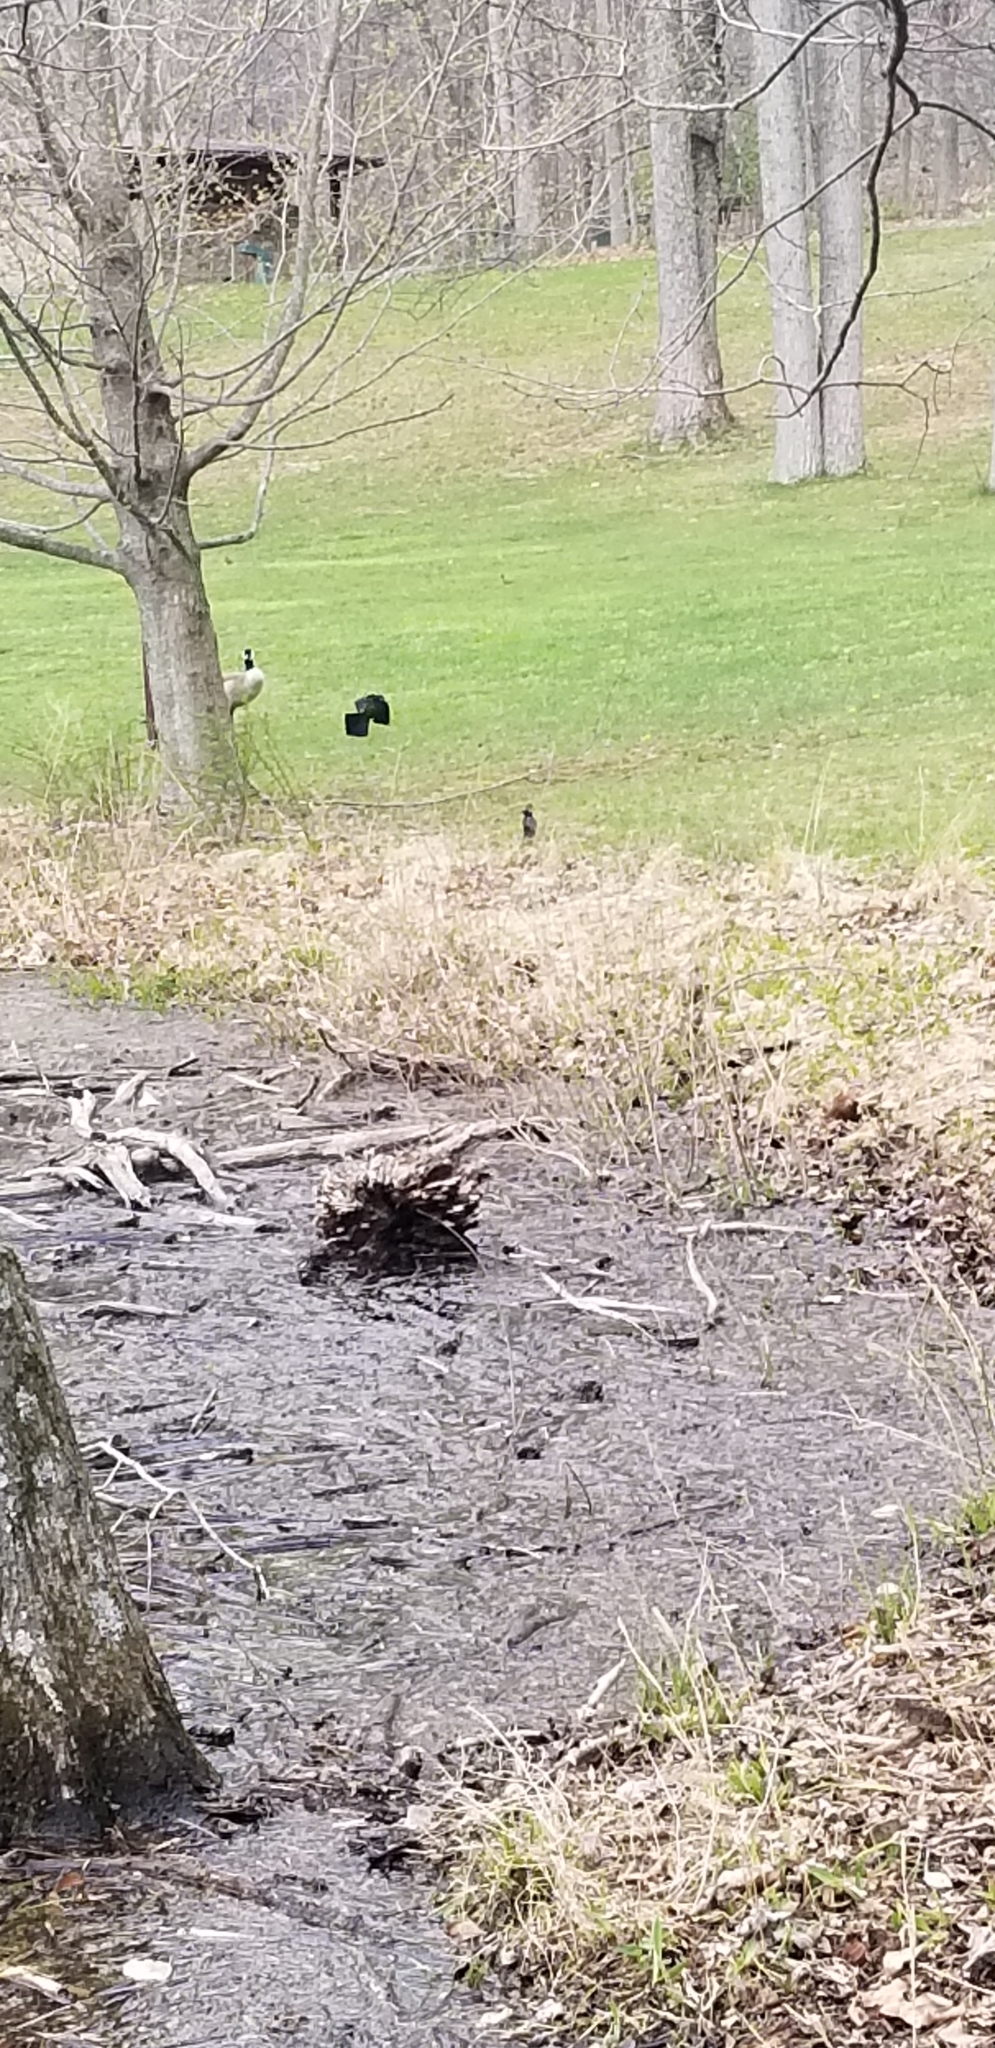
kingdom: Animalia
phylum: Chordata
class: Aves
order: Passeriformes
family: Icteridae
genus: Quiscalus
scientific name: Quiscalus quiscula
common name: Common grackle
